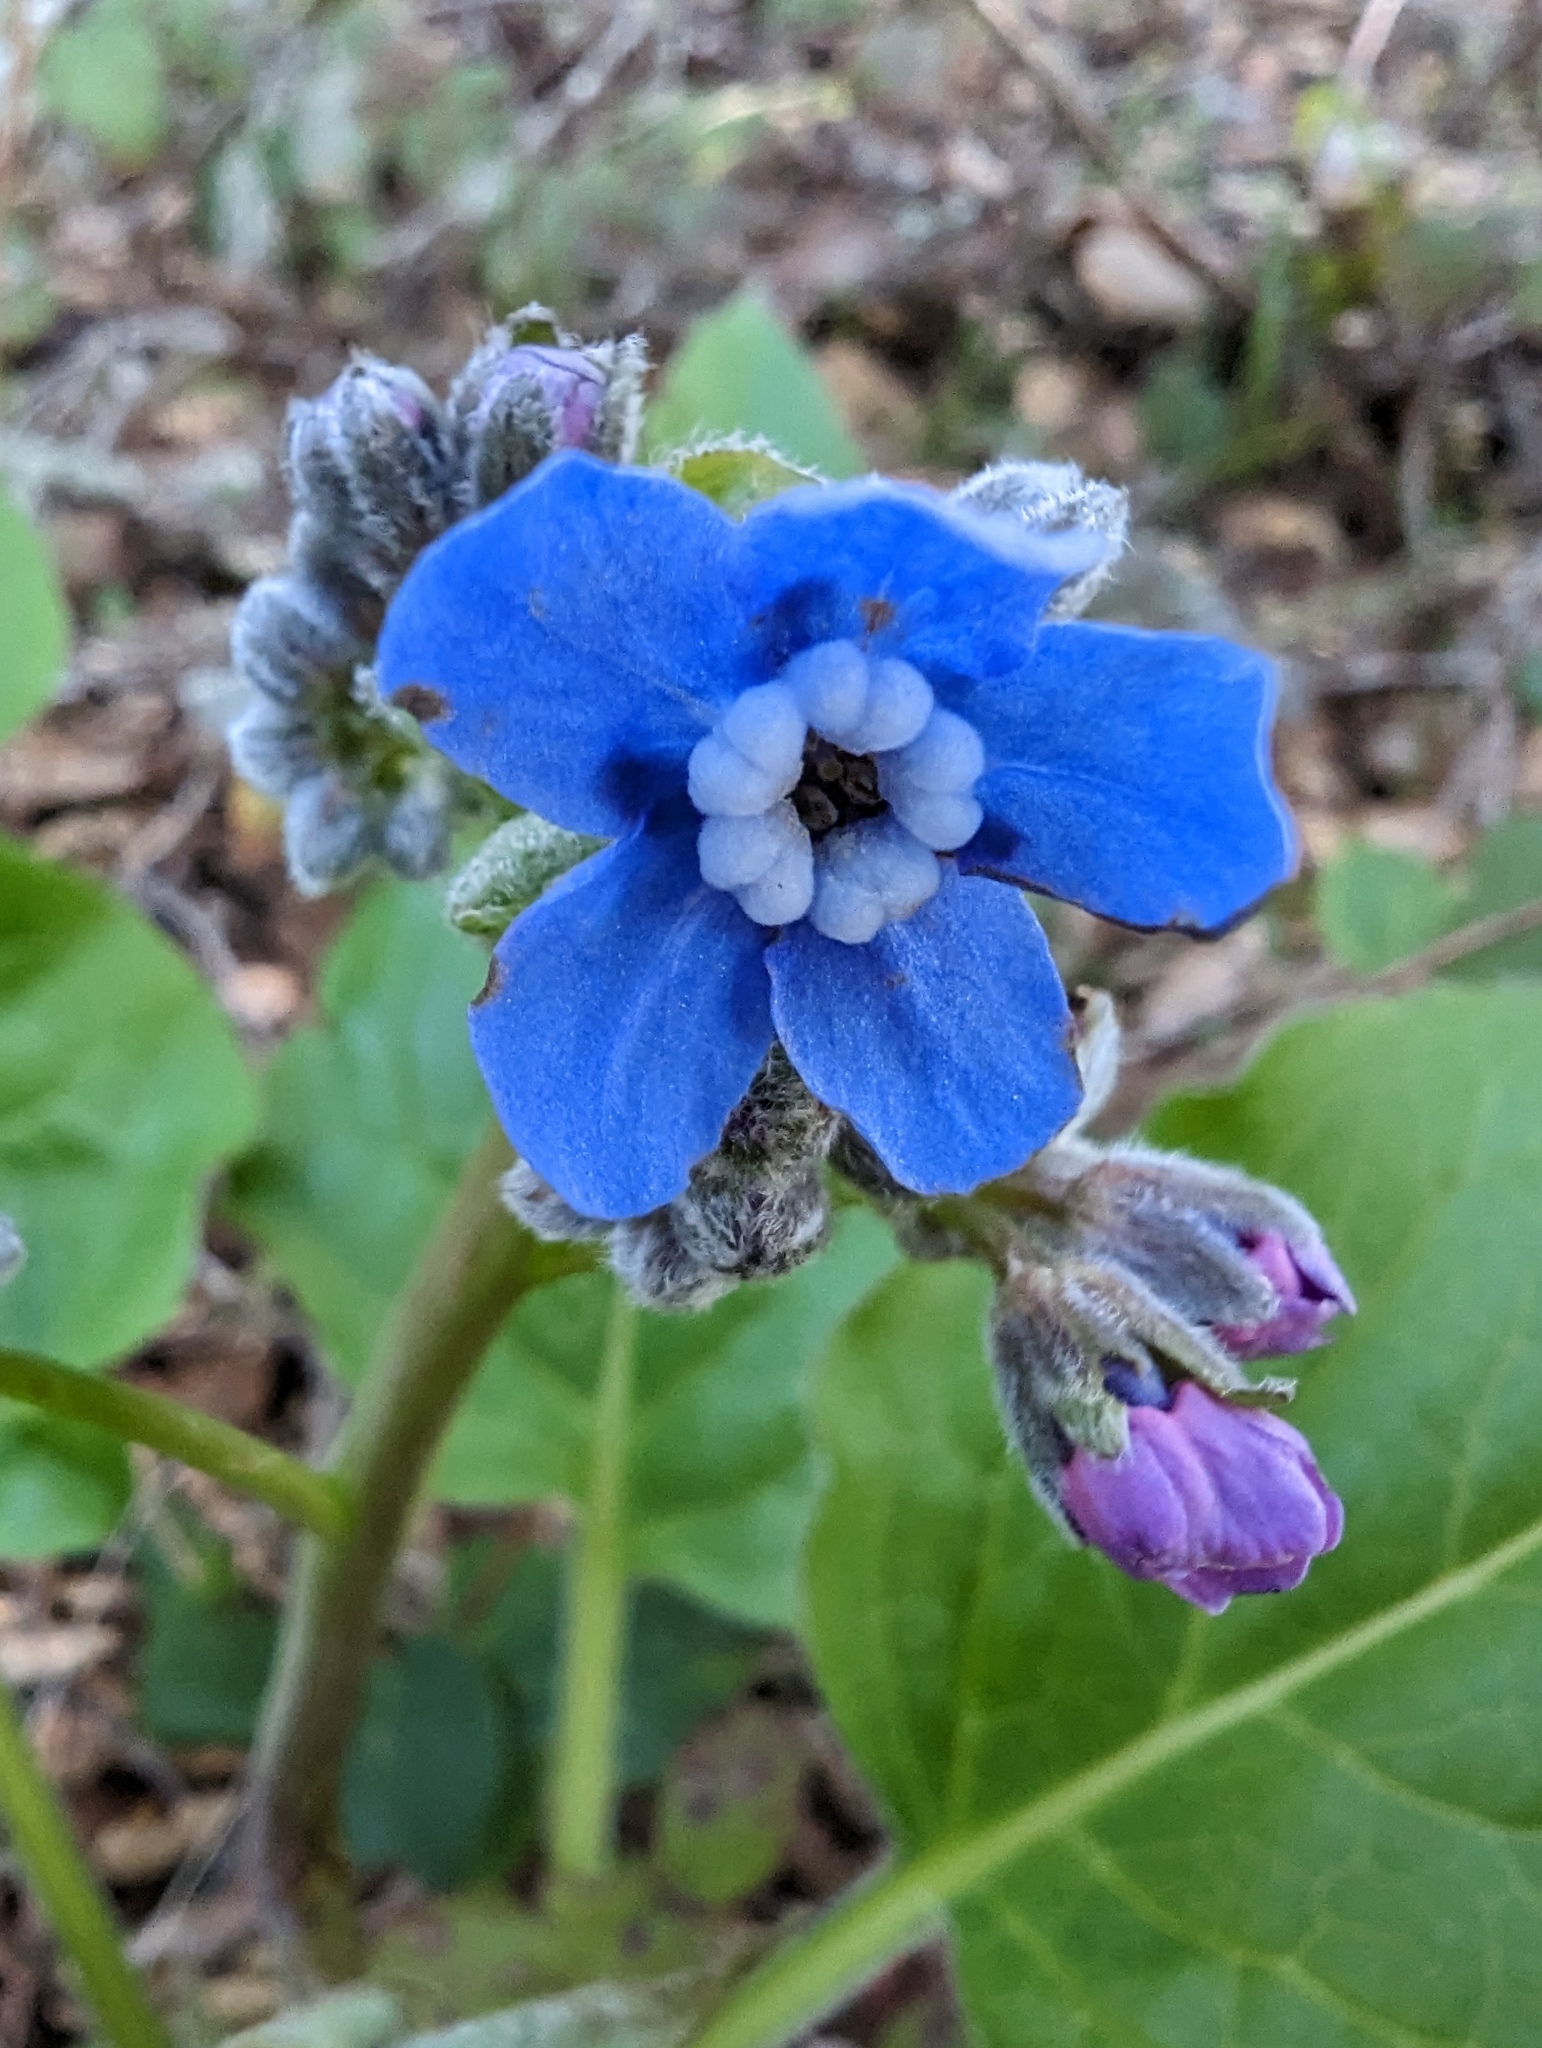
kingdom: Plantae
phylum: Tracheophyta
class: Magnoliopsida
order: Boraginales
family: Boraginaceae
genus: Adelinia
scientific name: Adelinia grande
